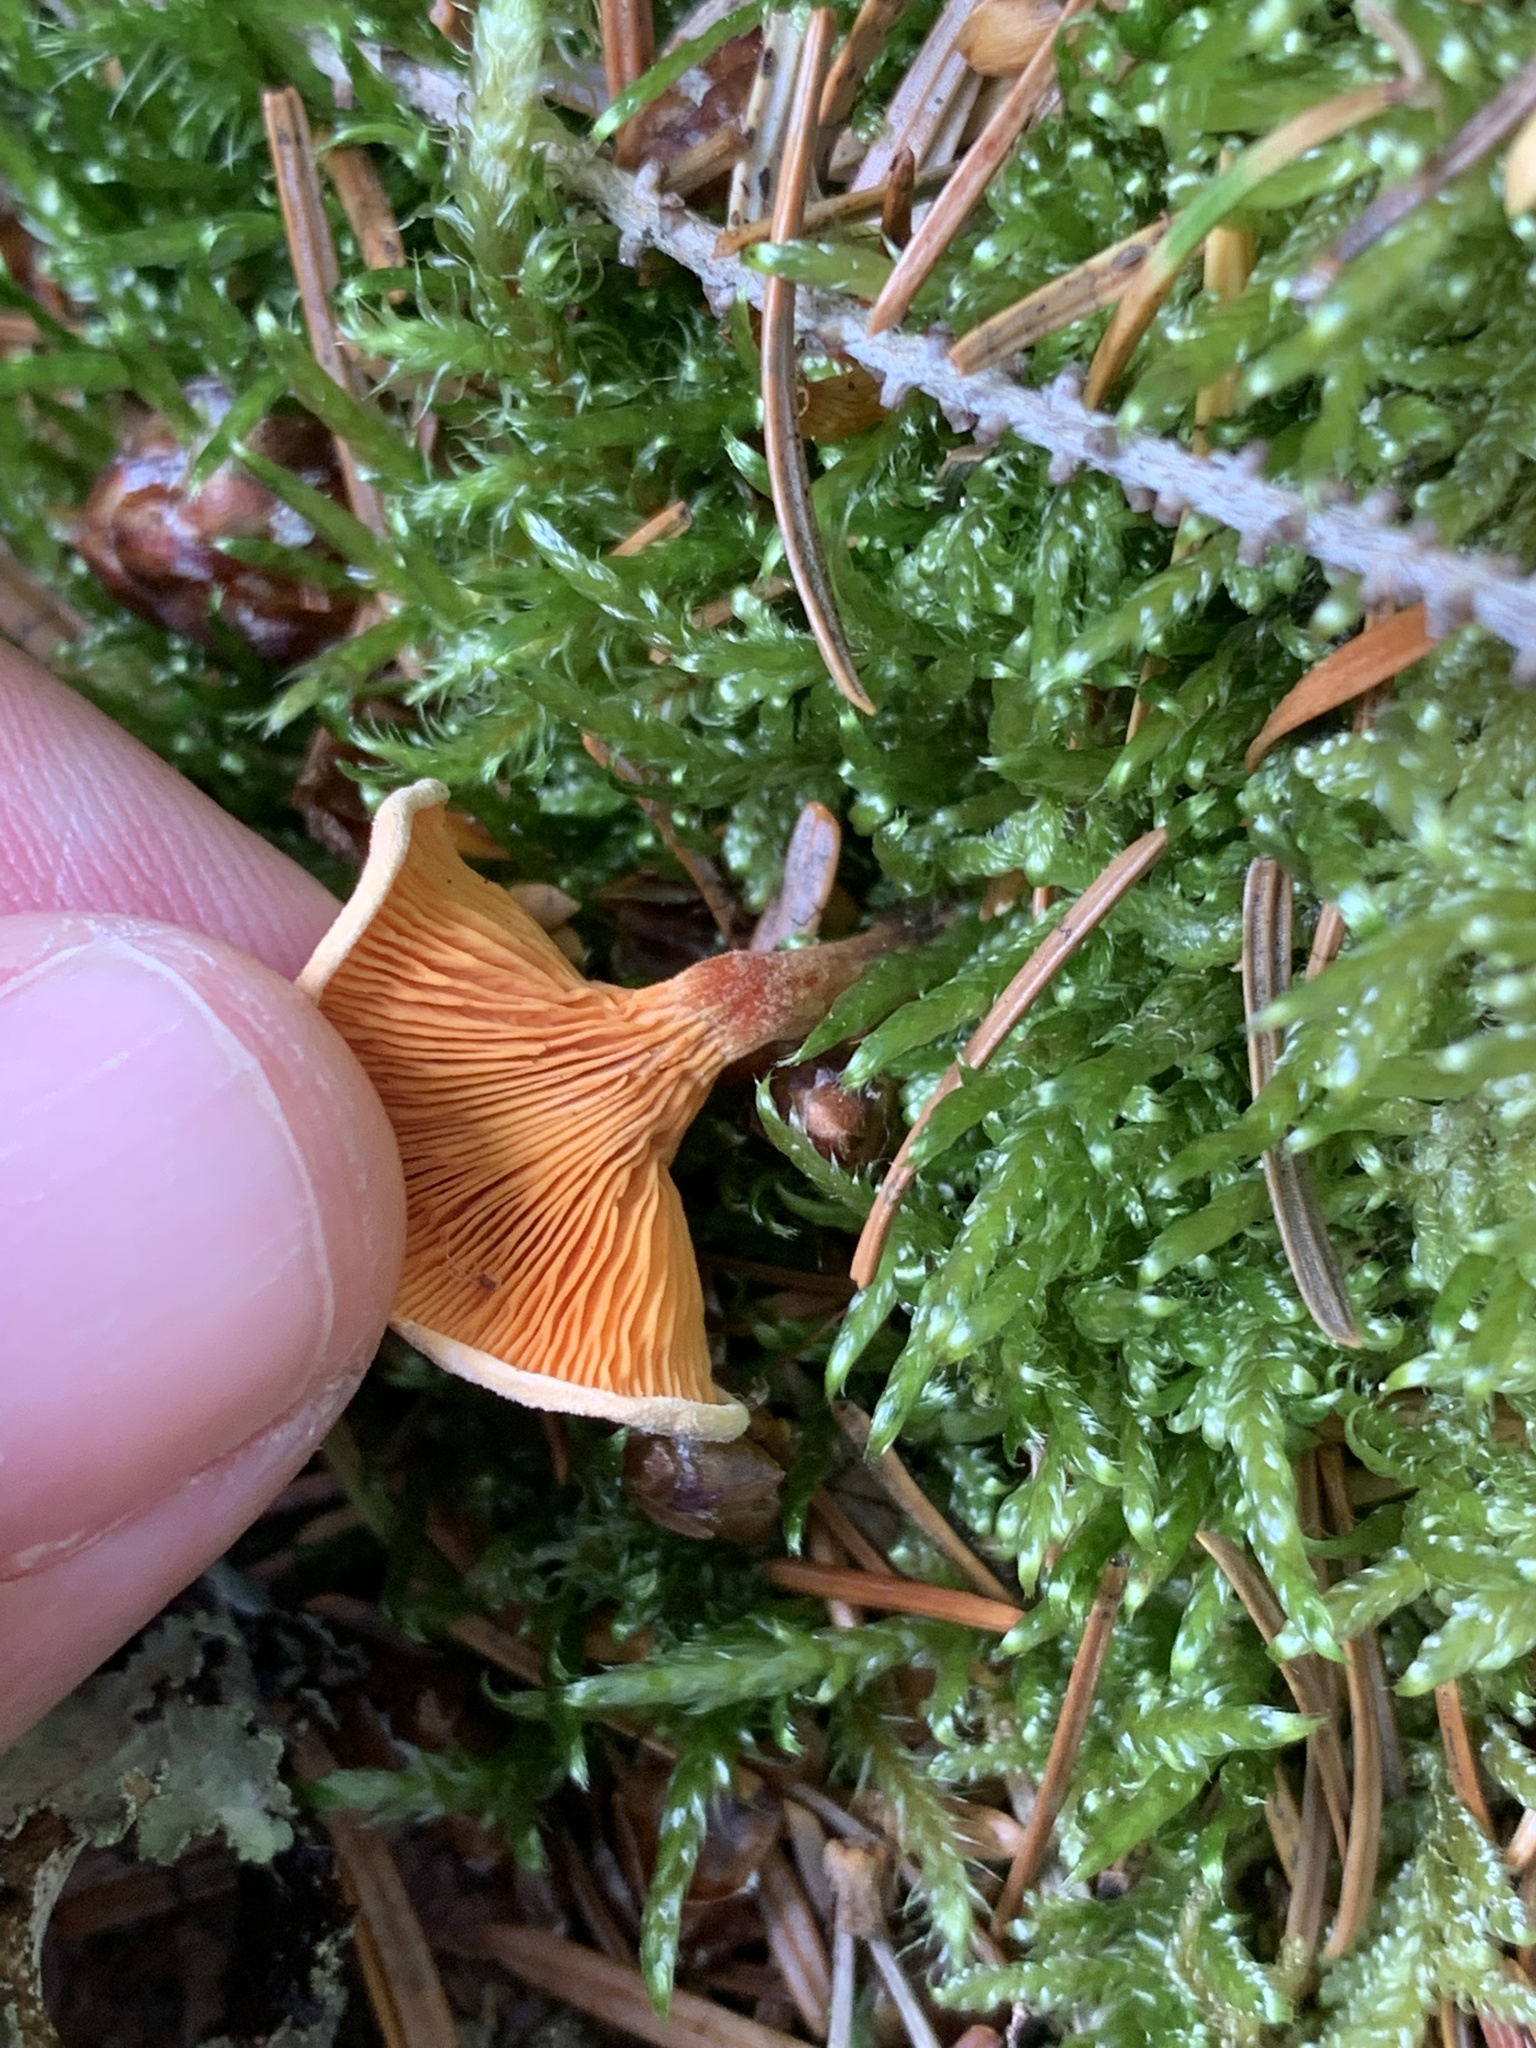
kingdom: Fungi
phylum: Basidiomycota
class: Agaricomycetes
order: Boletales
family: Hygrophoropsidaceae
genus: Hygrophoropsis
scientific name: Hygrophoropsis aurantiaca
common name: False chanterelle
